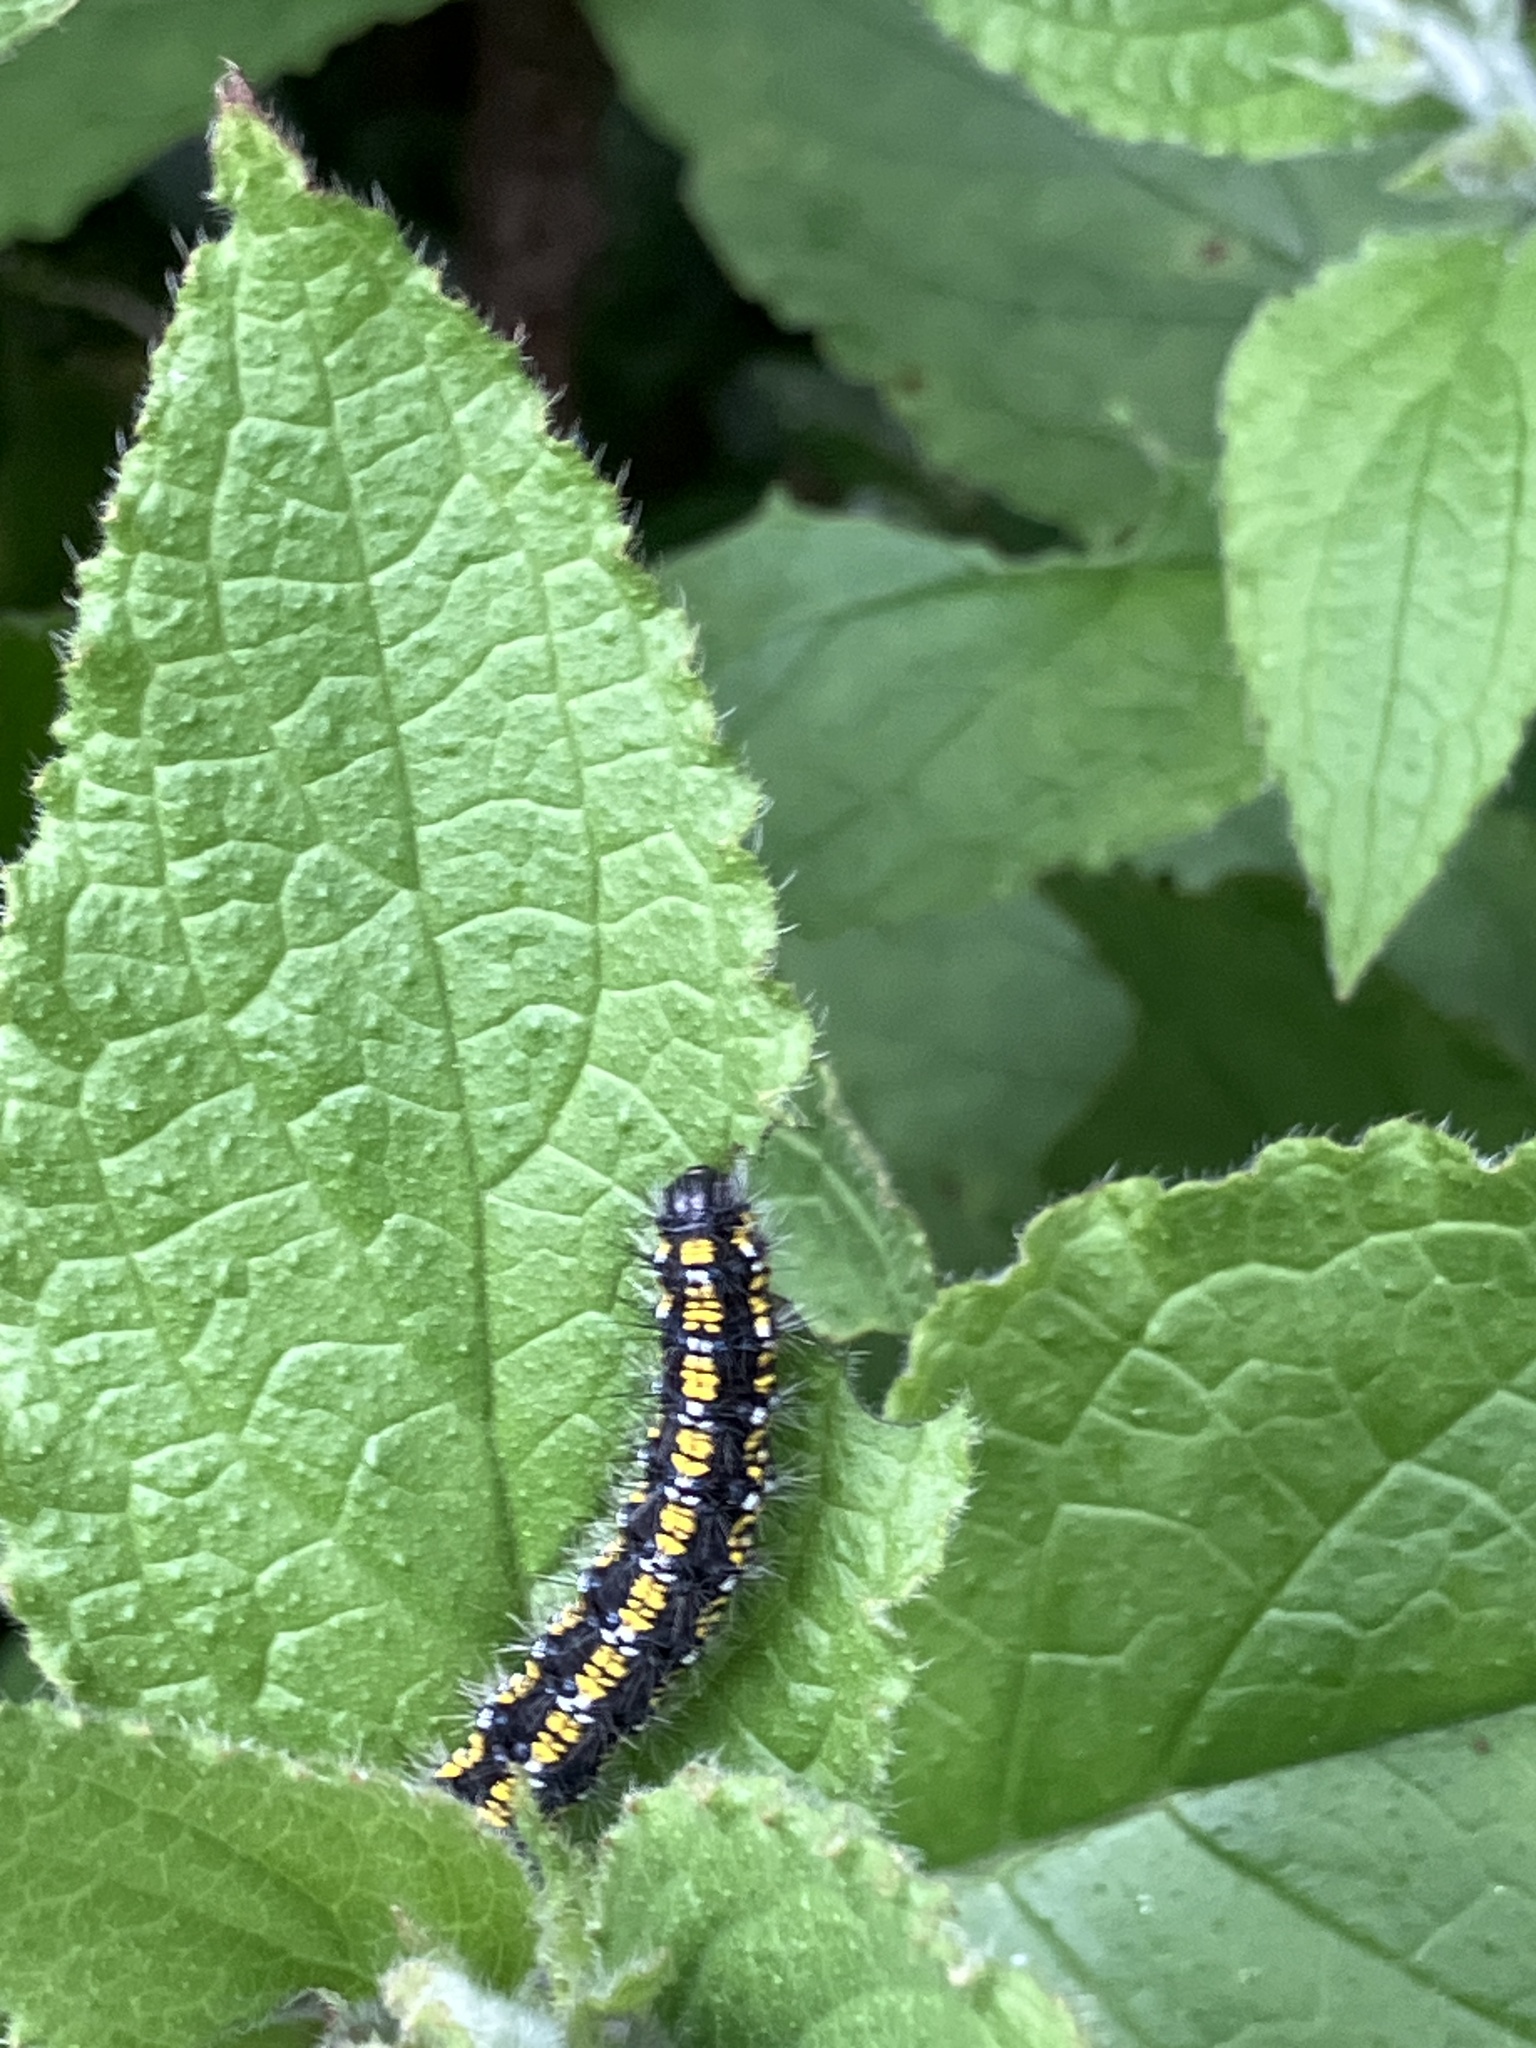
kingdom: Animalia
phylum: Arthropoda
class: Insecta
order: Lepidoptera
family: Erebidae
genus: Callimorpha
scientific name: Callimorpha dominula
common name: Scarlet tiger
